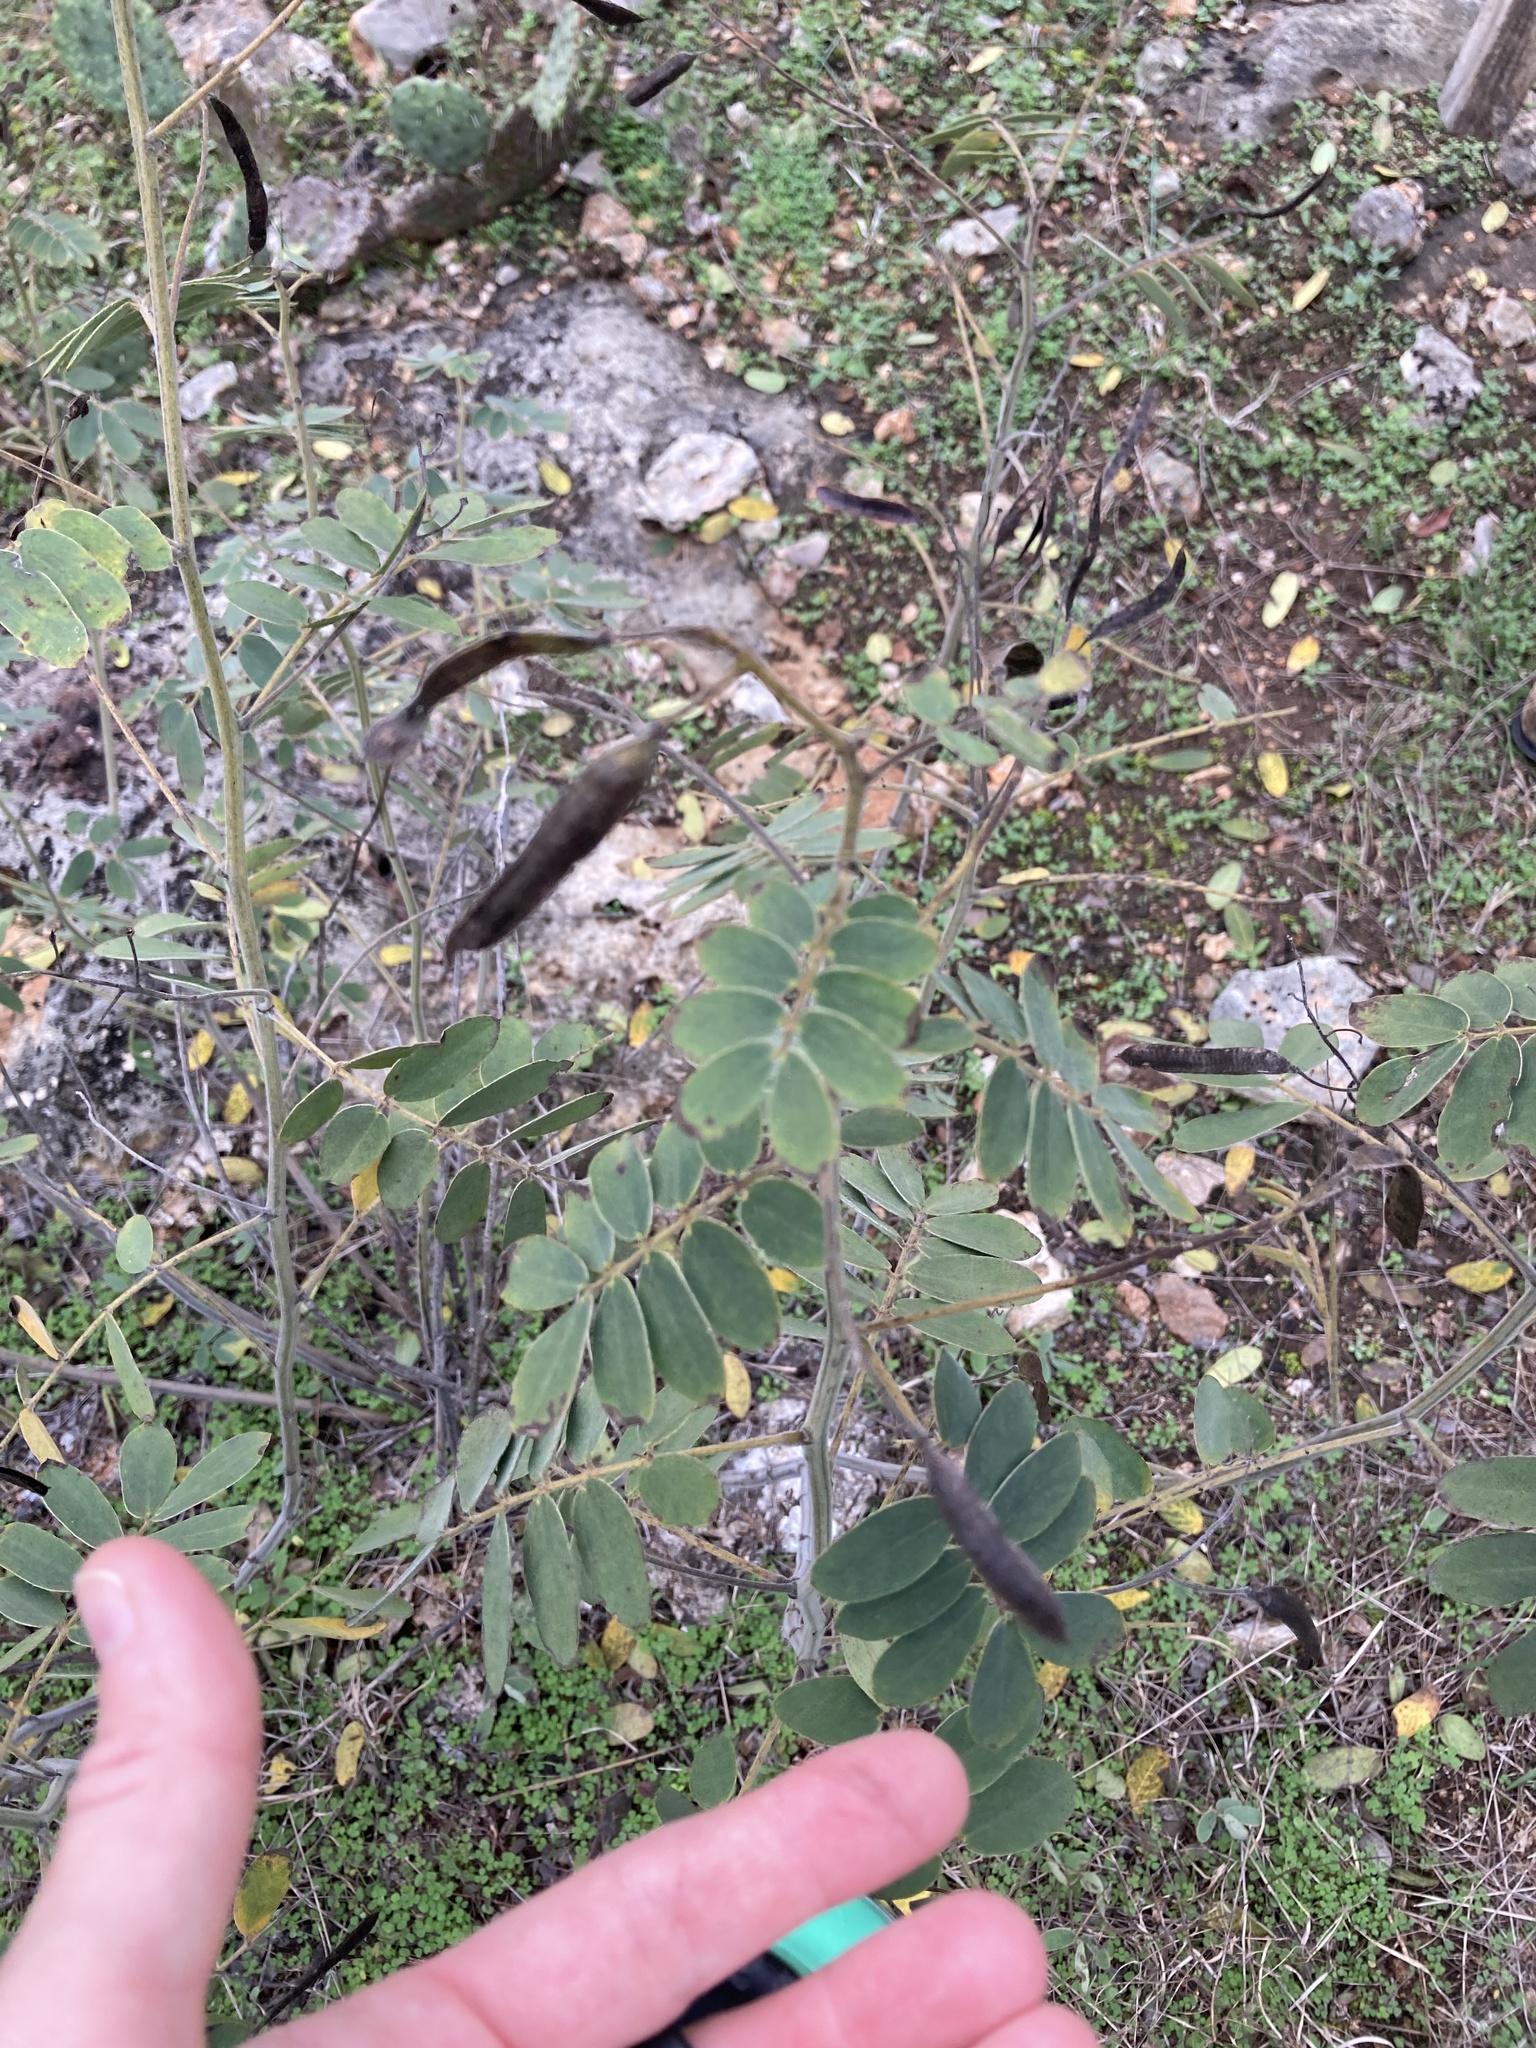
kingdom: Plantae
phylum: Tracheophyta
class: Magnoliopsida
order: Fabales
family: Fabaceae
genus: Senna
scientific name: Senna lindheimeriana
